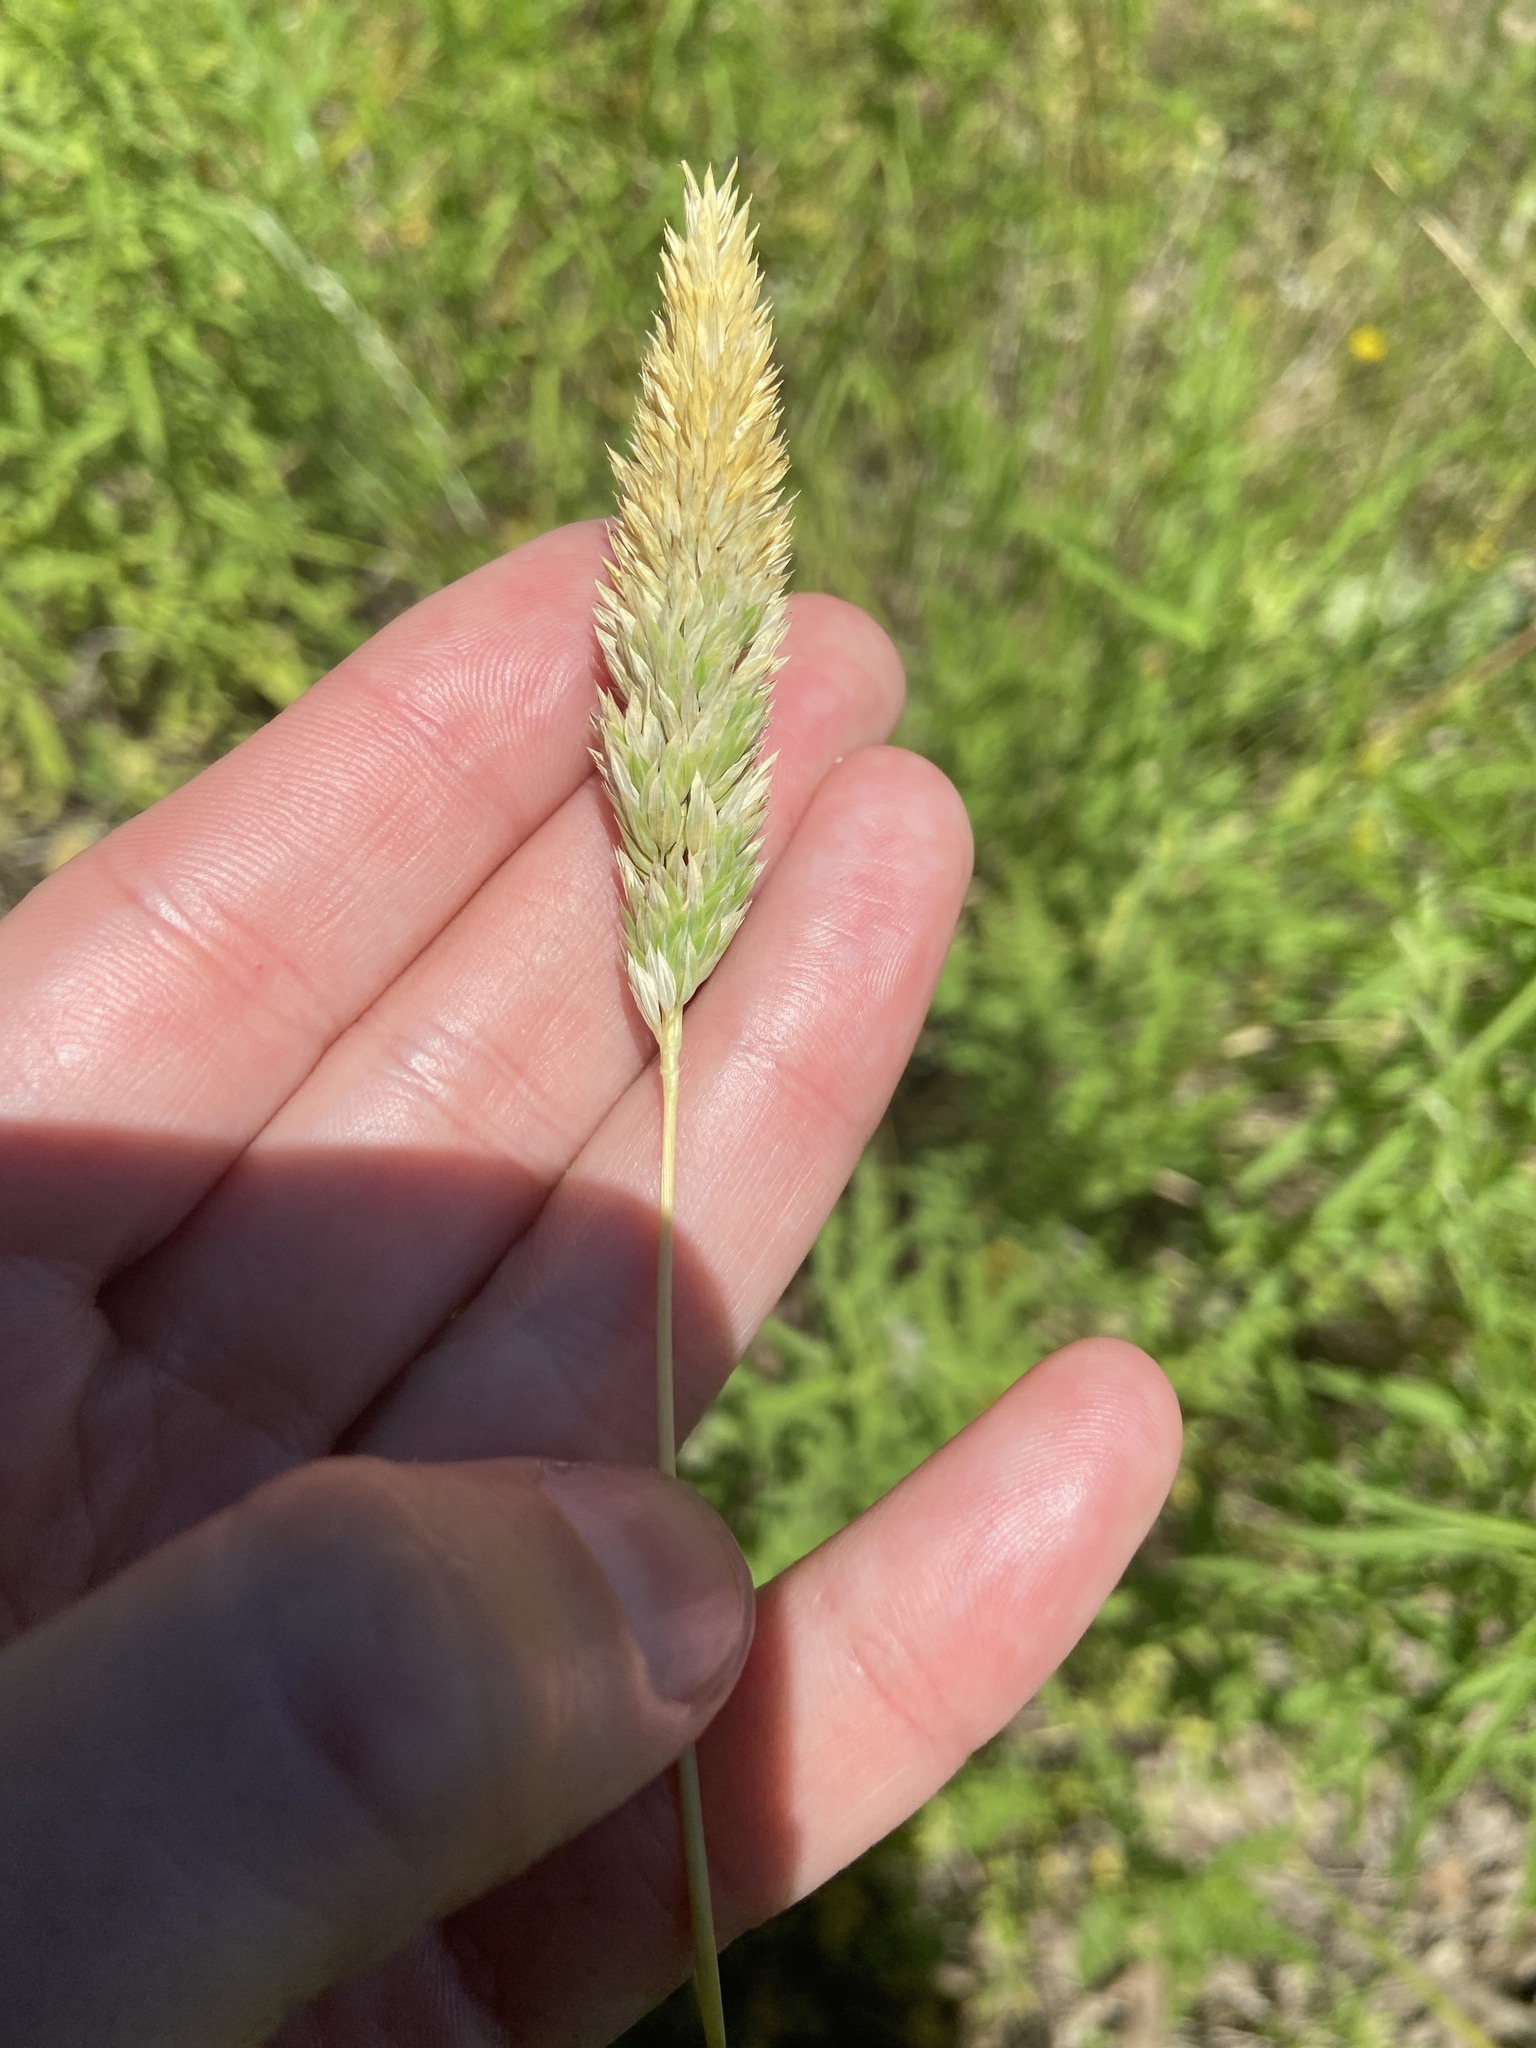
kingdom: Plantae
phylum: Tracheophyta
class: Liliopsida
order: Poales
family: Poaceae
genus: Phalaris
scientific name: Phalaris caroliniana
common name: May grass
